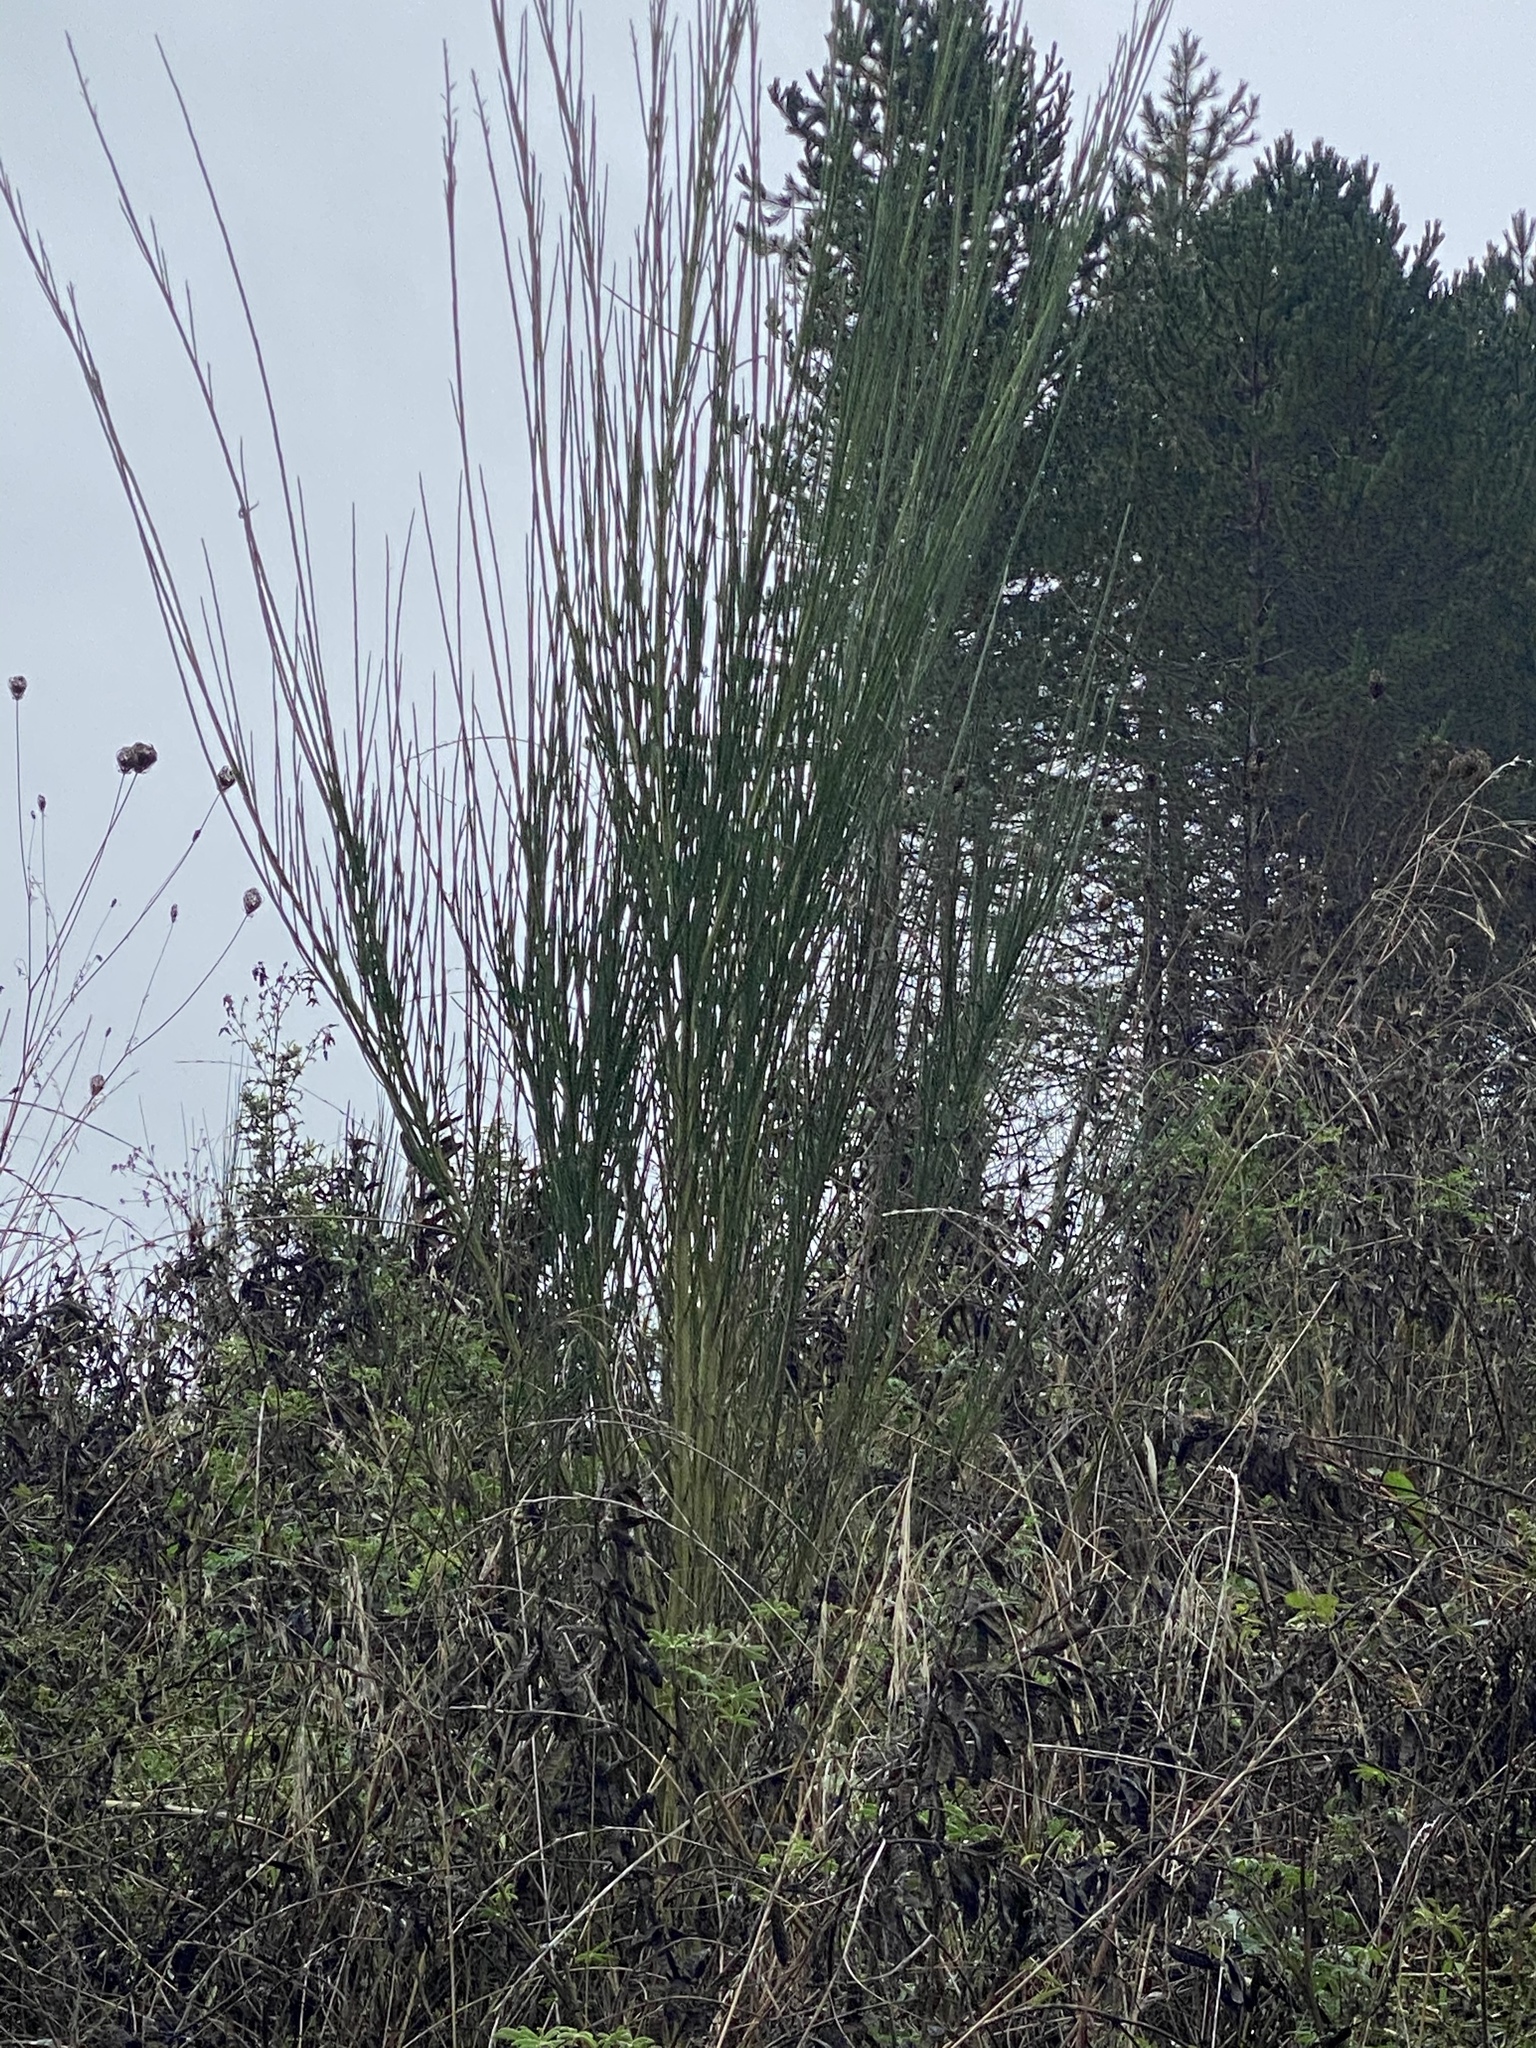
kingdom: Plantae
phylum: Tracheophyta
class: Magnoliopsida
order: Fabales
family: Fabaceae
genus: Cytisus
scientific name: Cytisus scoparius
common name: Scotch broom
